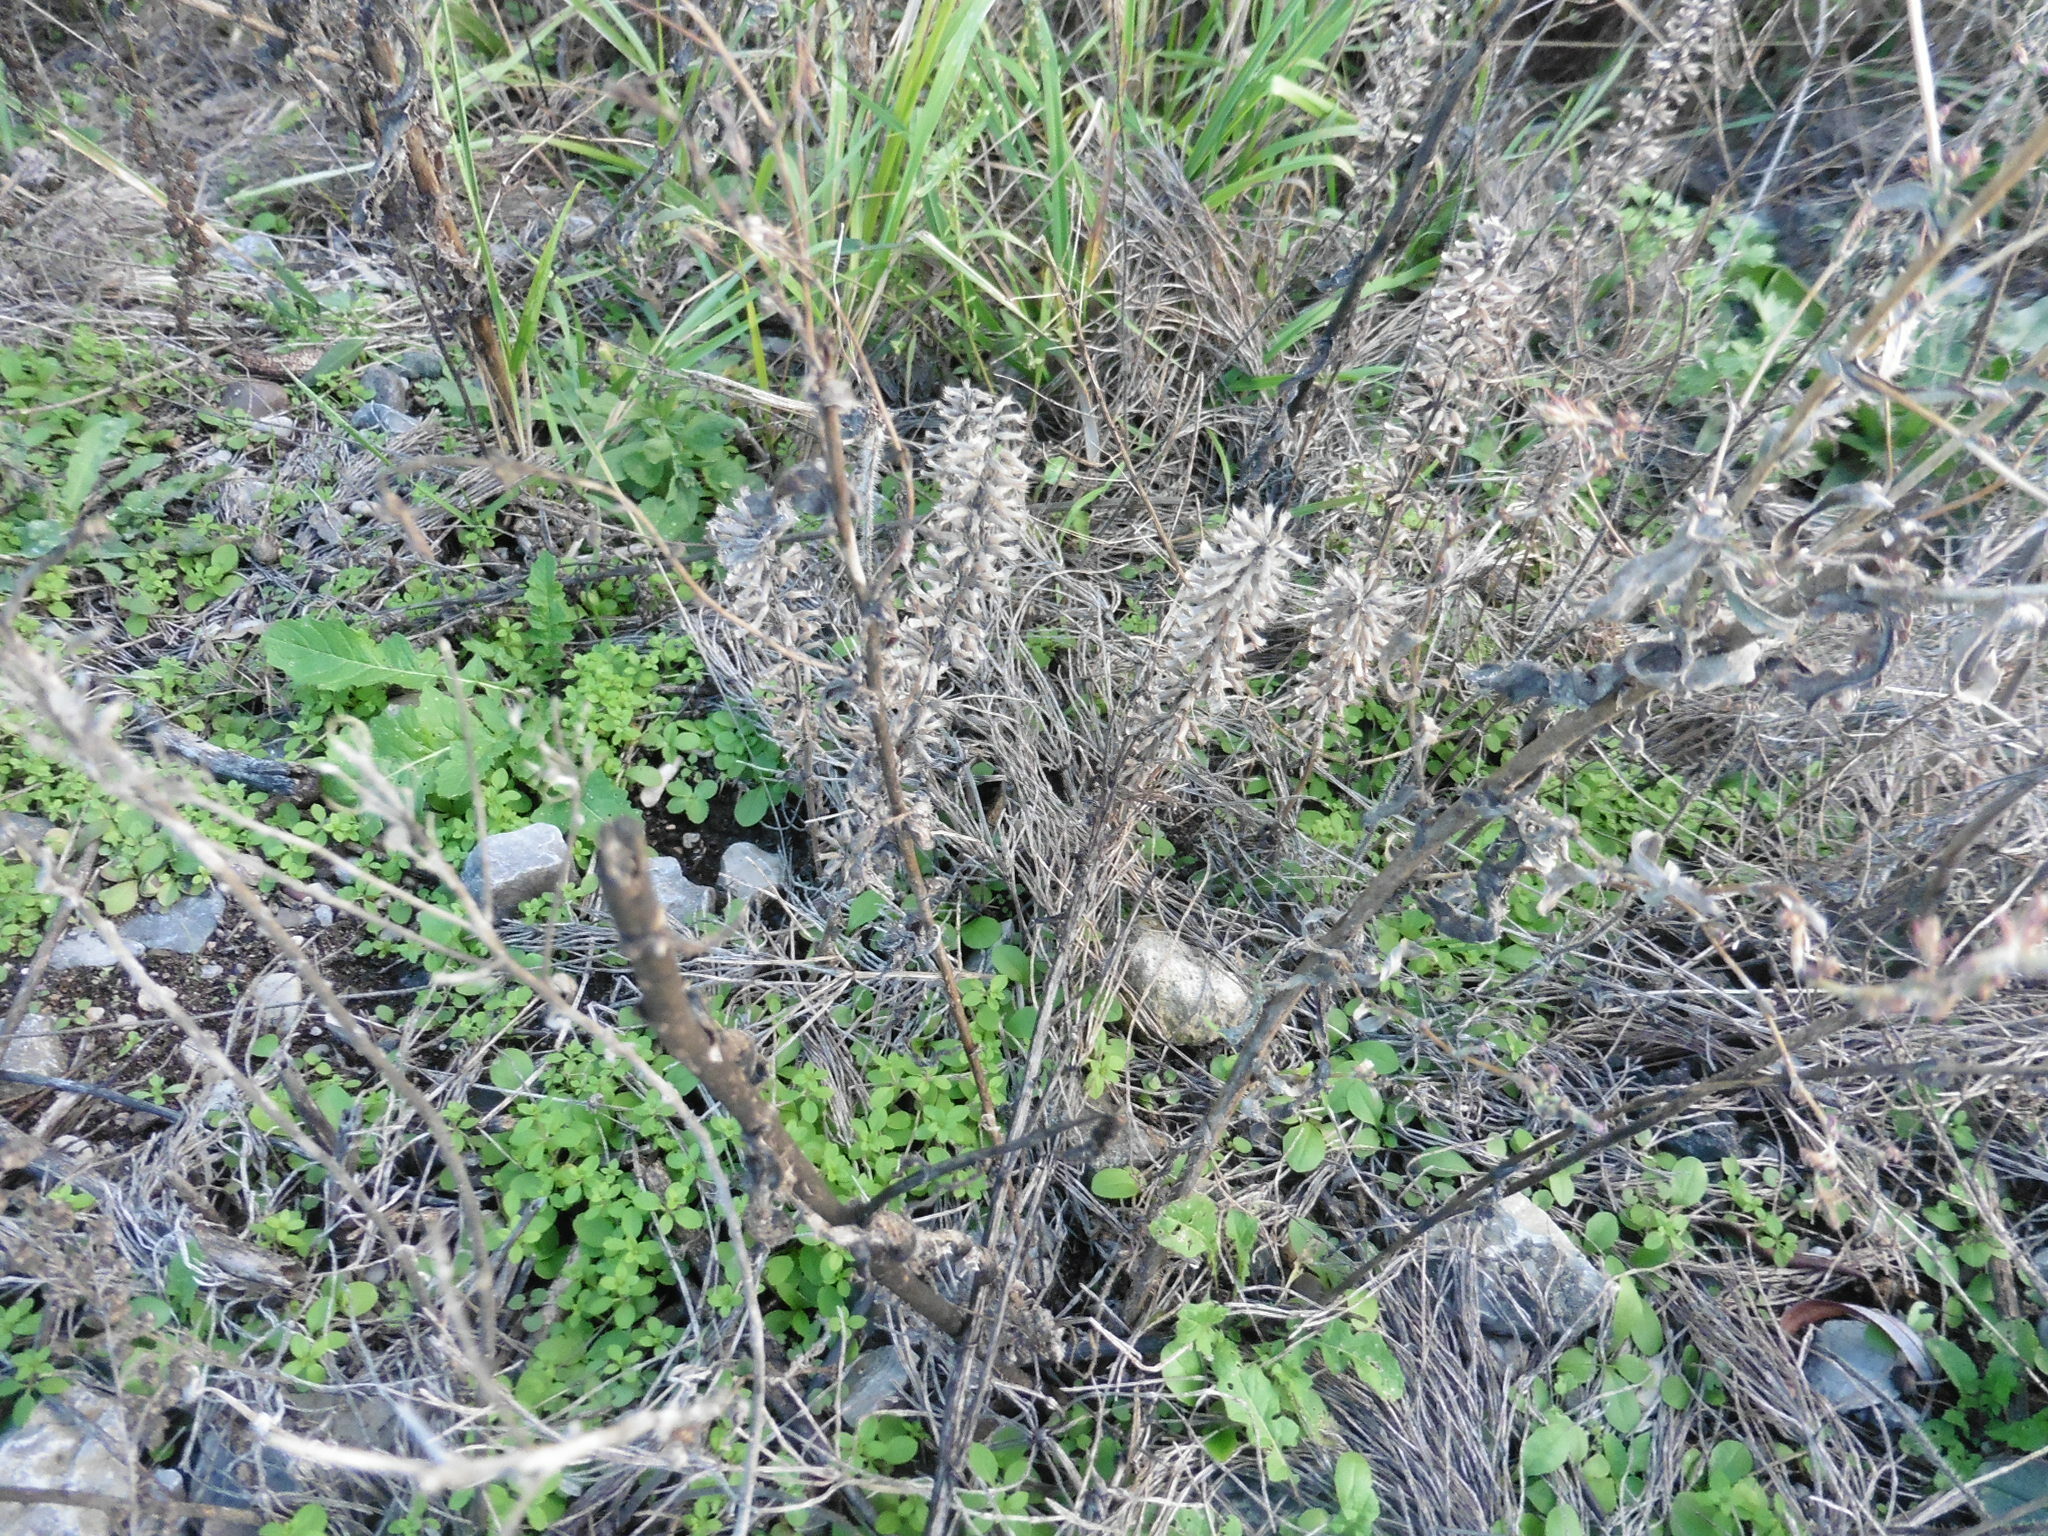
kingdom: Plantae
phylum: Tracheophyta
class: Magnoliopsida
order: Lamiales
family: Lamiaceae
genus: Dracocephalum
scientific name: Dracocephalum thymiflorum
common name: Thymeleaf dragonhead
